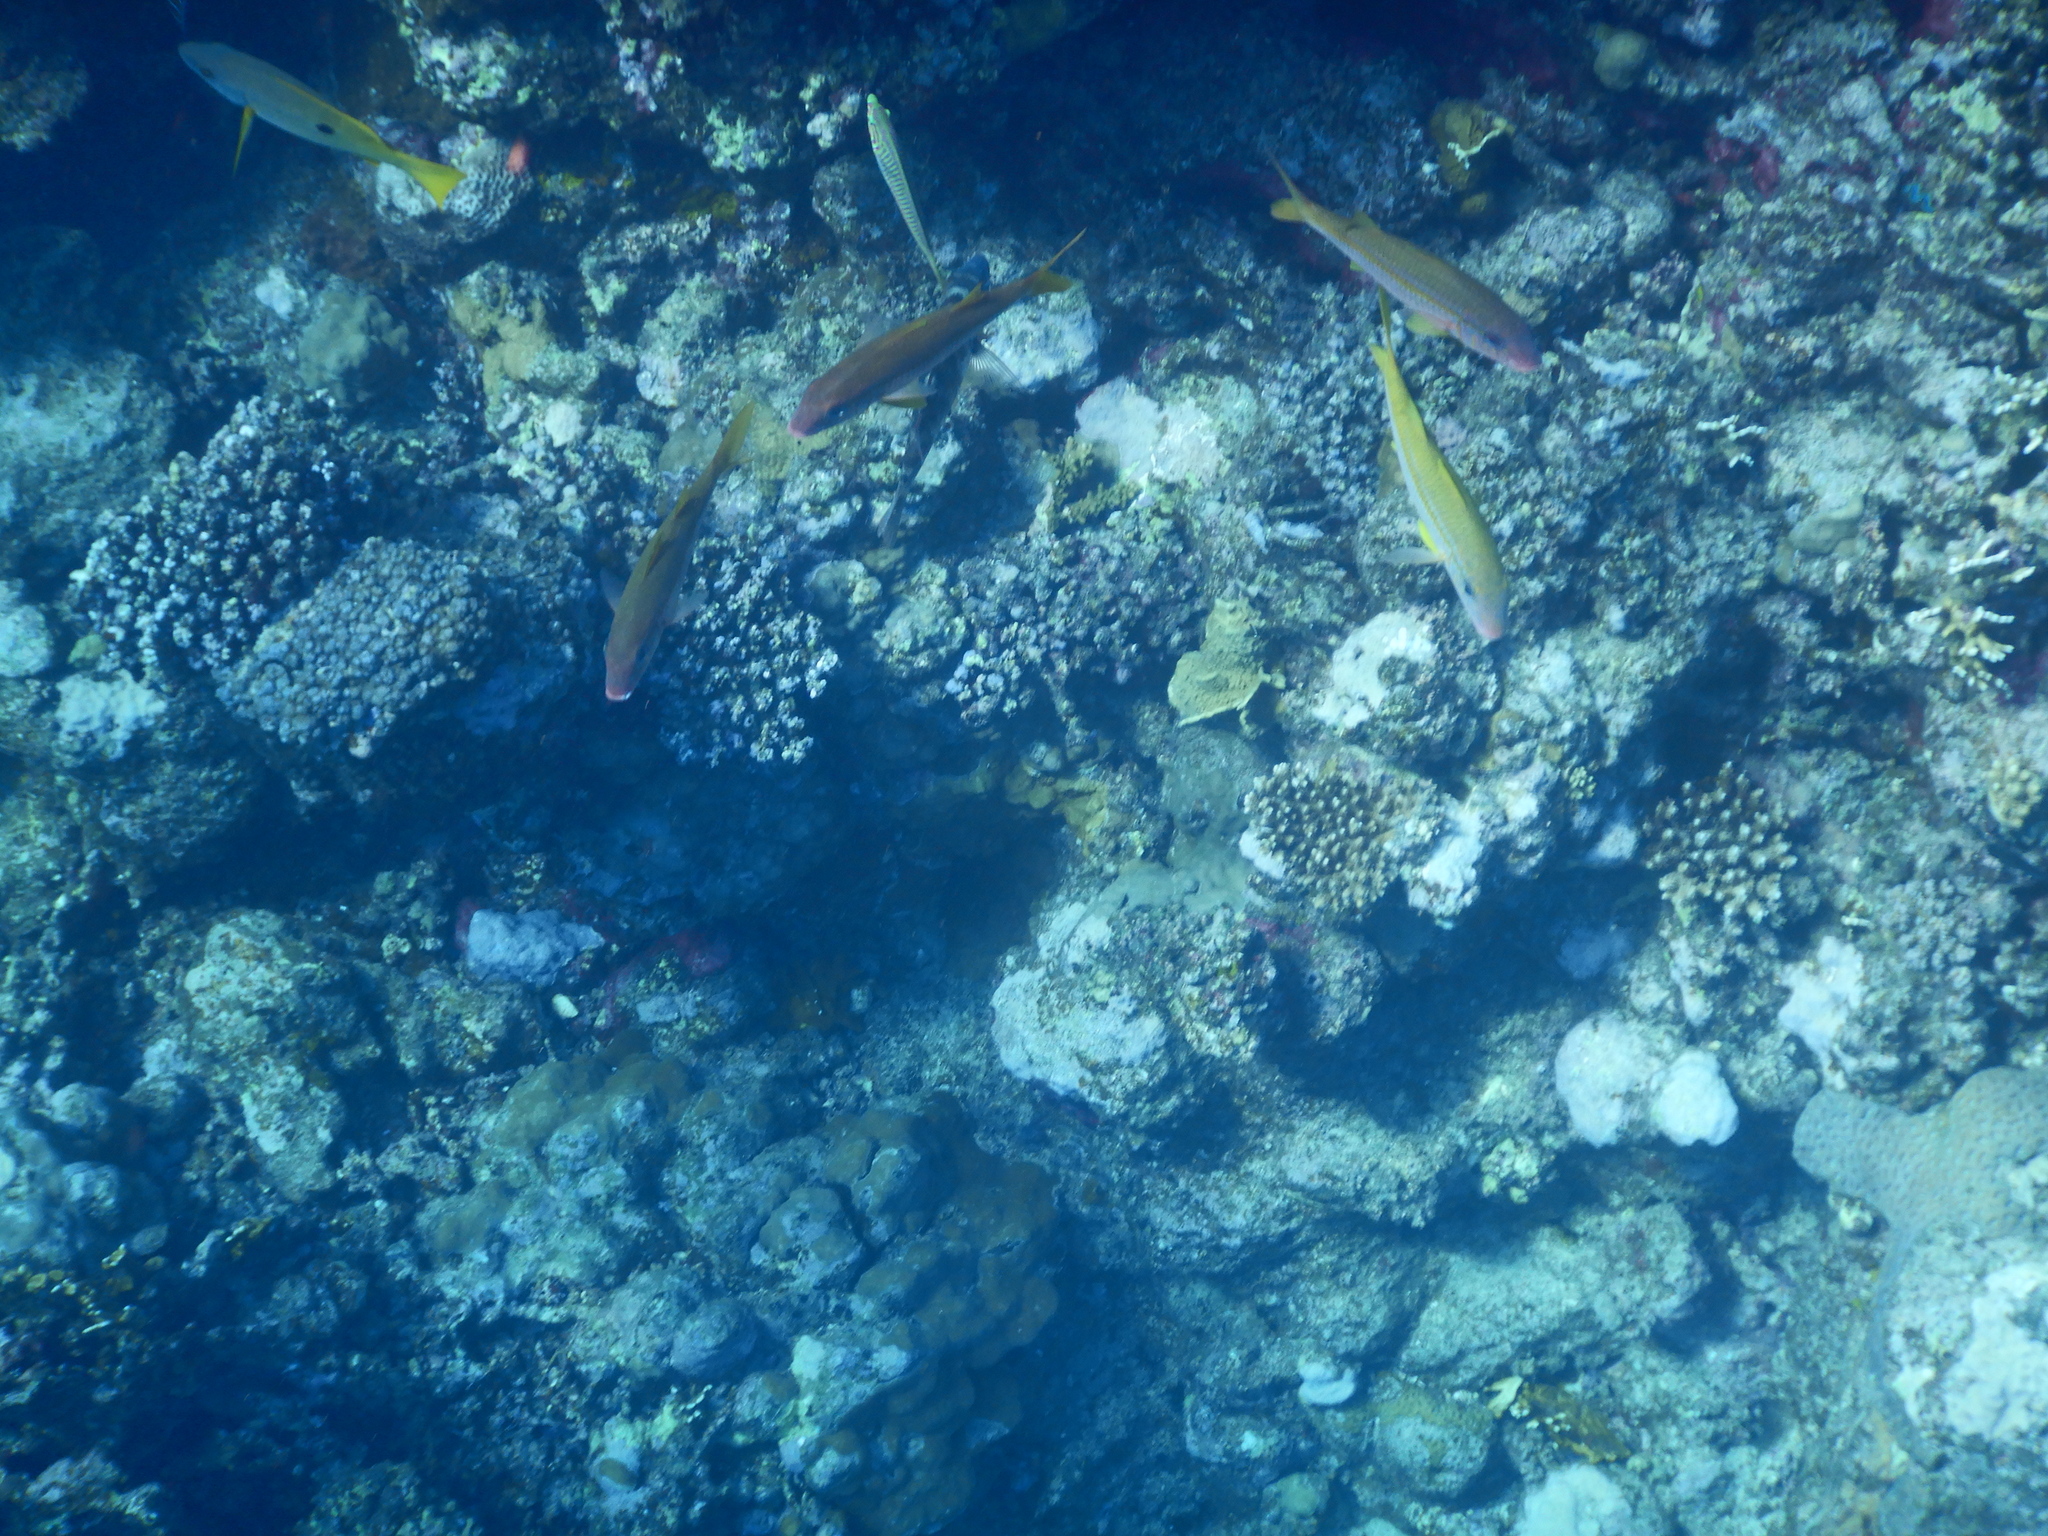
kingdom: Animalia
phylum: Chordata
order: Perciformes
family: Mullidae
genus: Mulloidichthys
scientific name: Mulloidichthys vanicolensis
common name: Yellowfin goatfish
